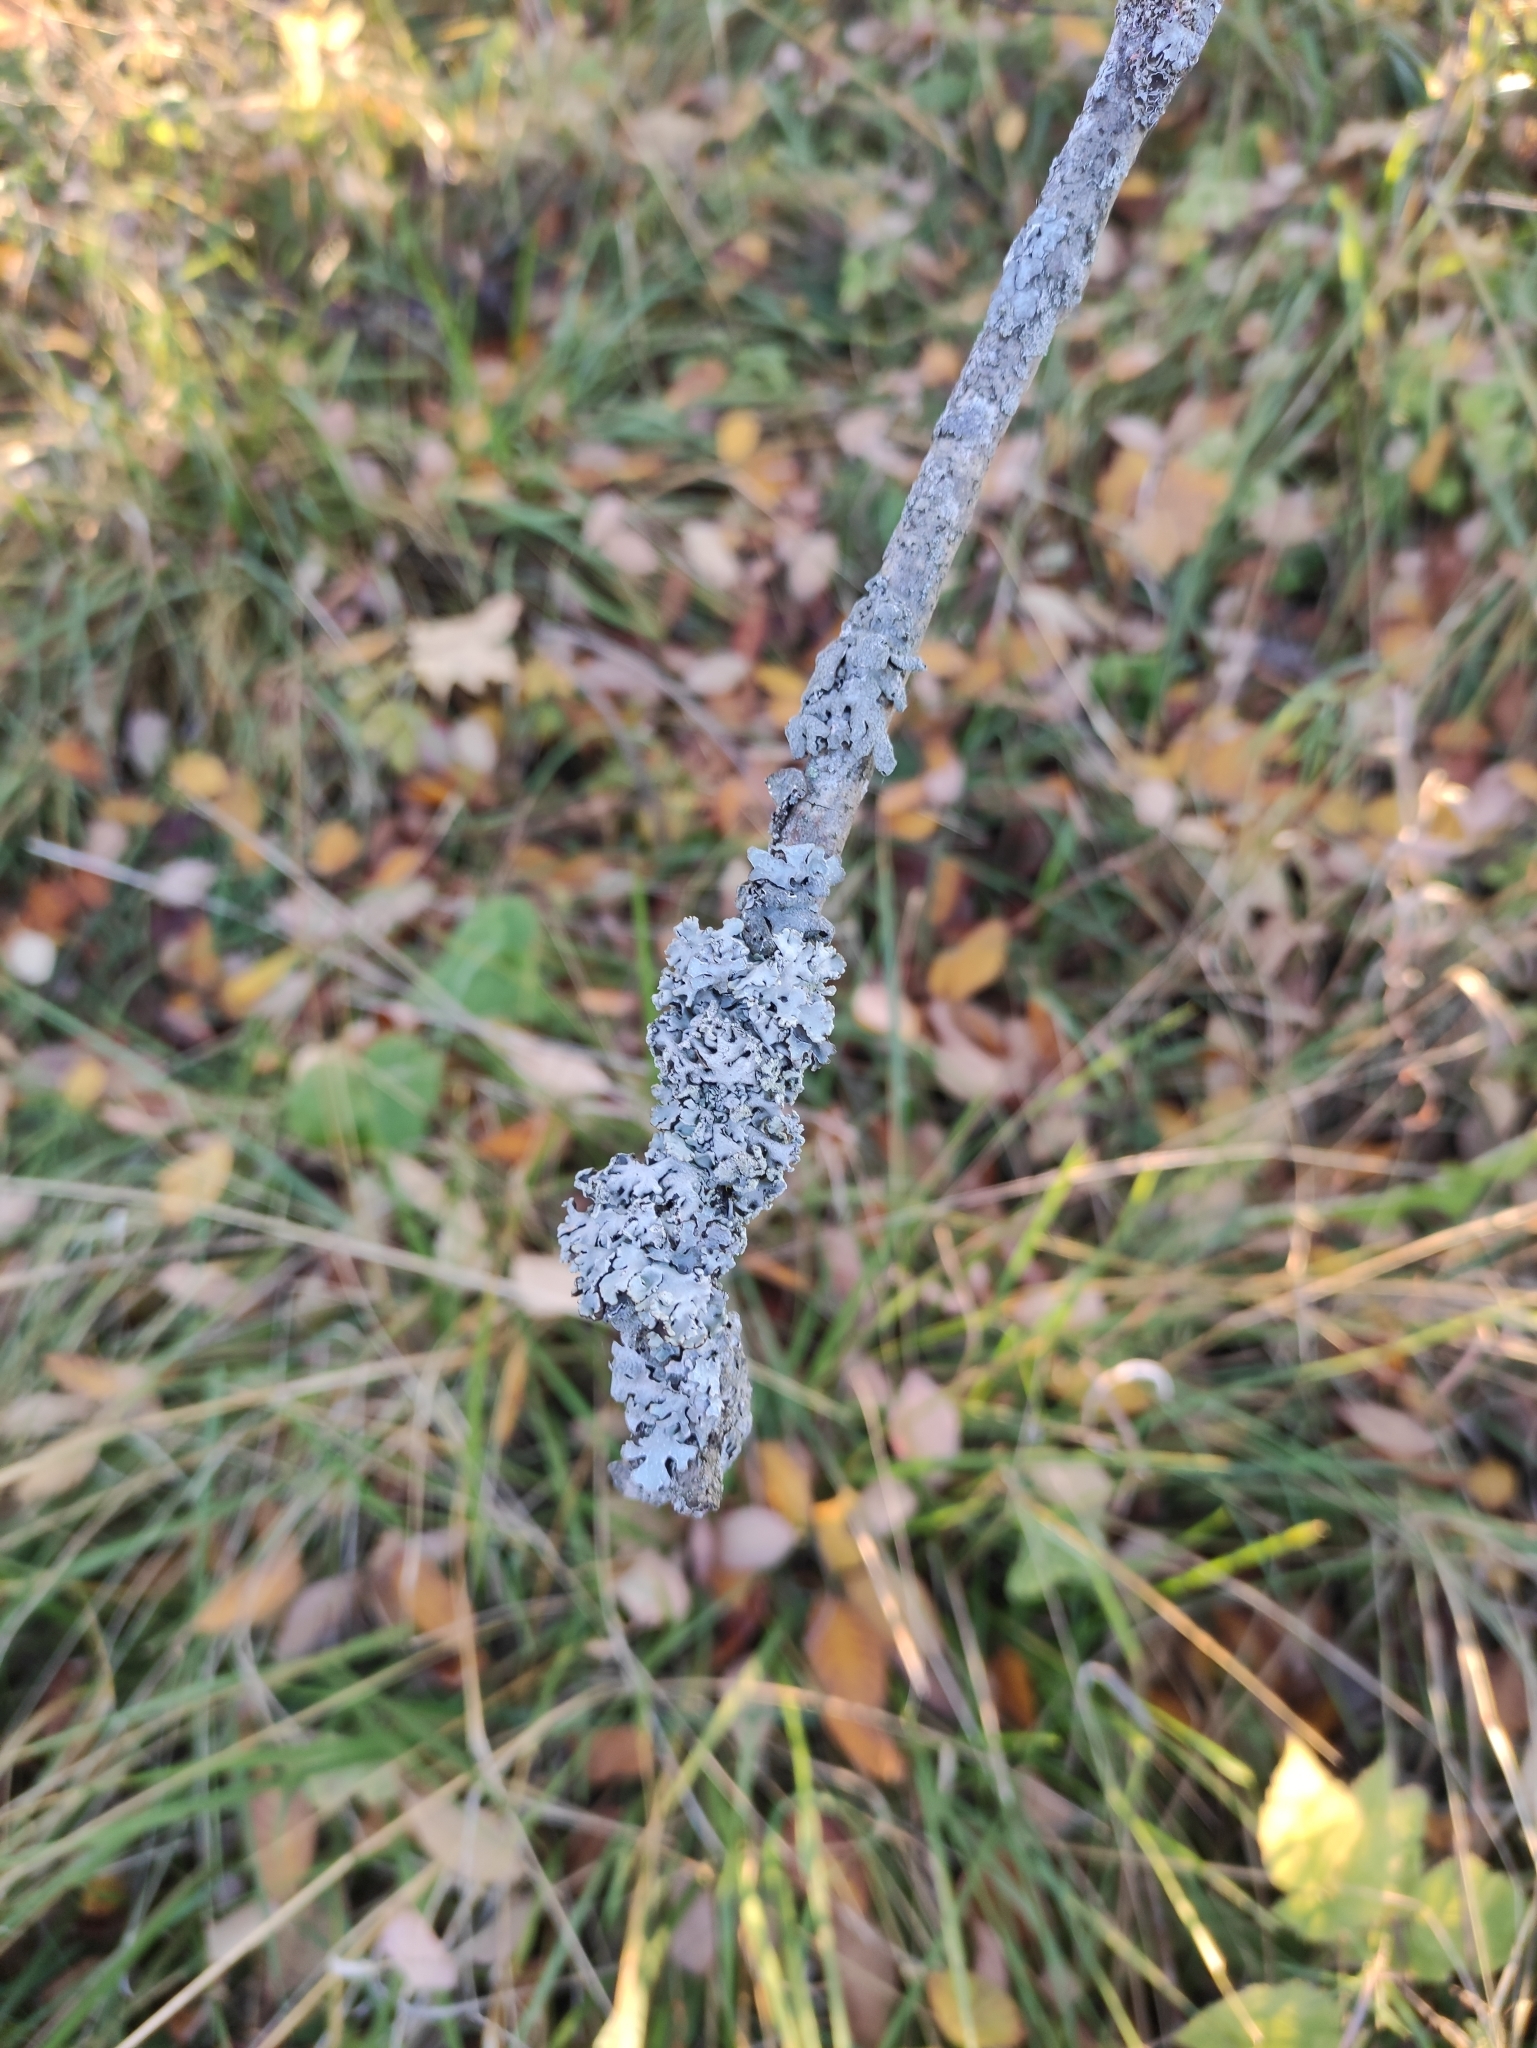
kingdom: Fungi
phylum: Ascomycota
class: Lecanoromycetes
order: Lecanorales
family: Parmeliaceae
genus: Hypogymnia
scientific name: Hypogymnia physodes
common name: Dark crottle
